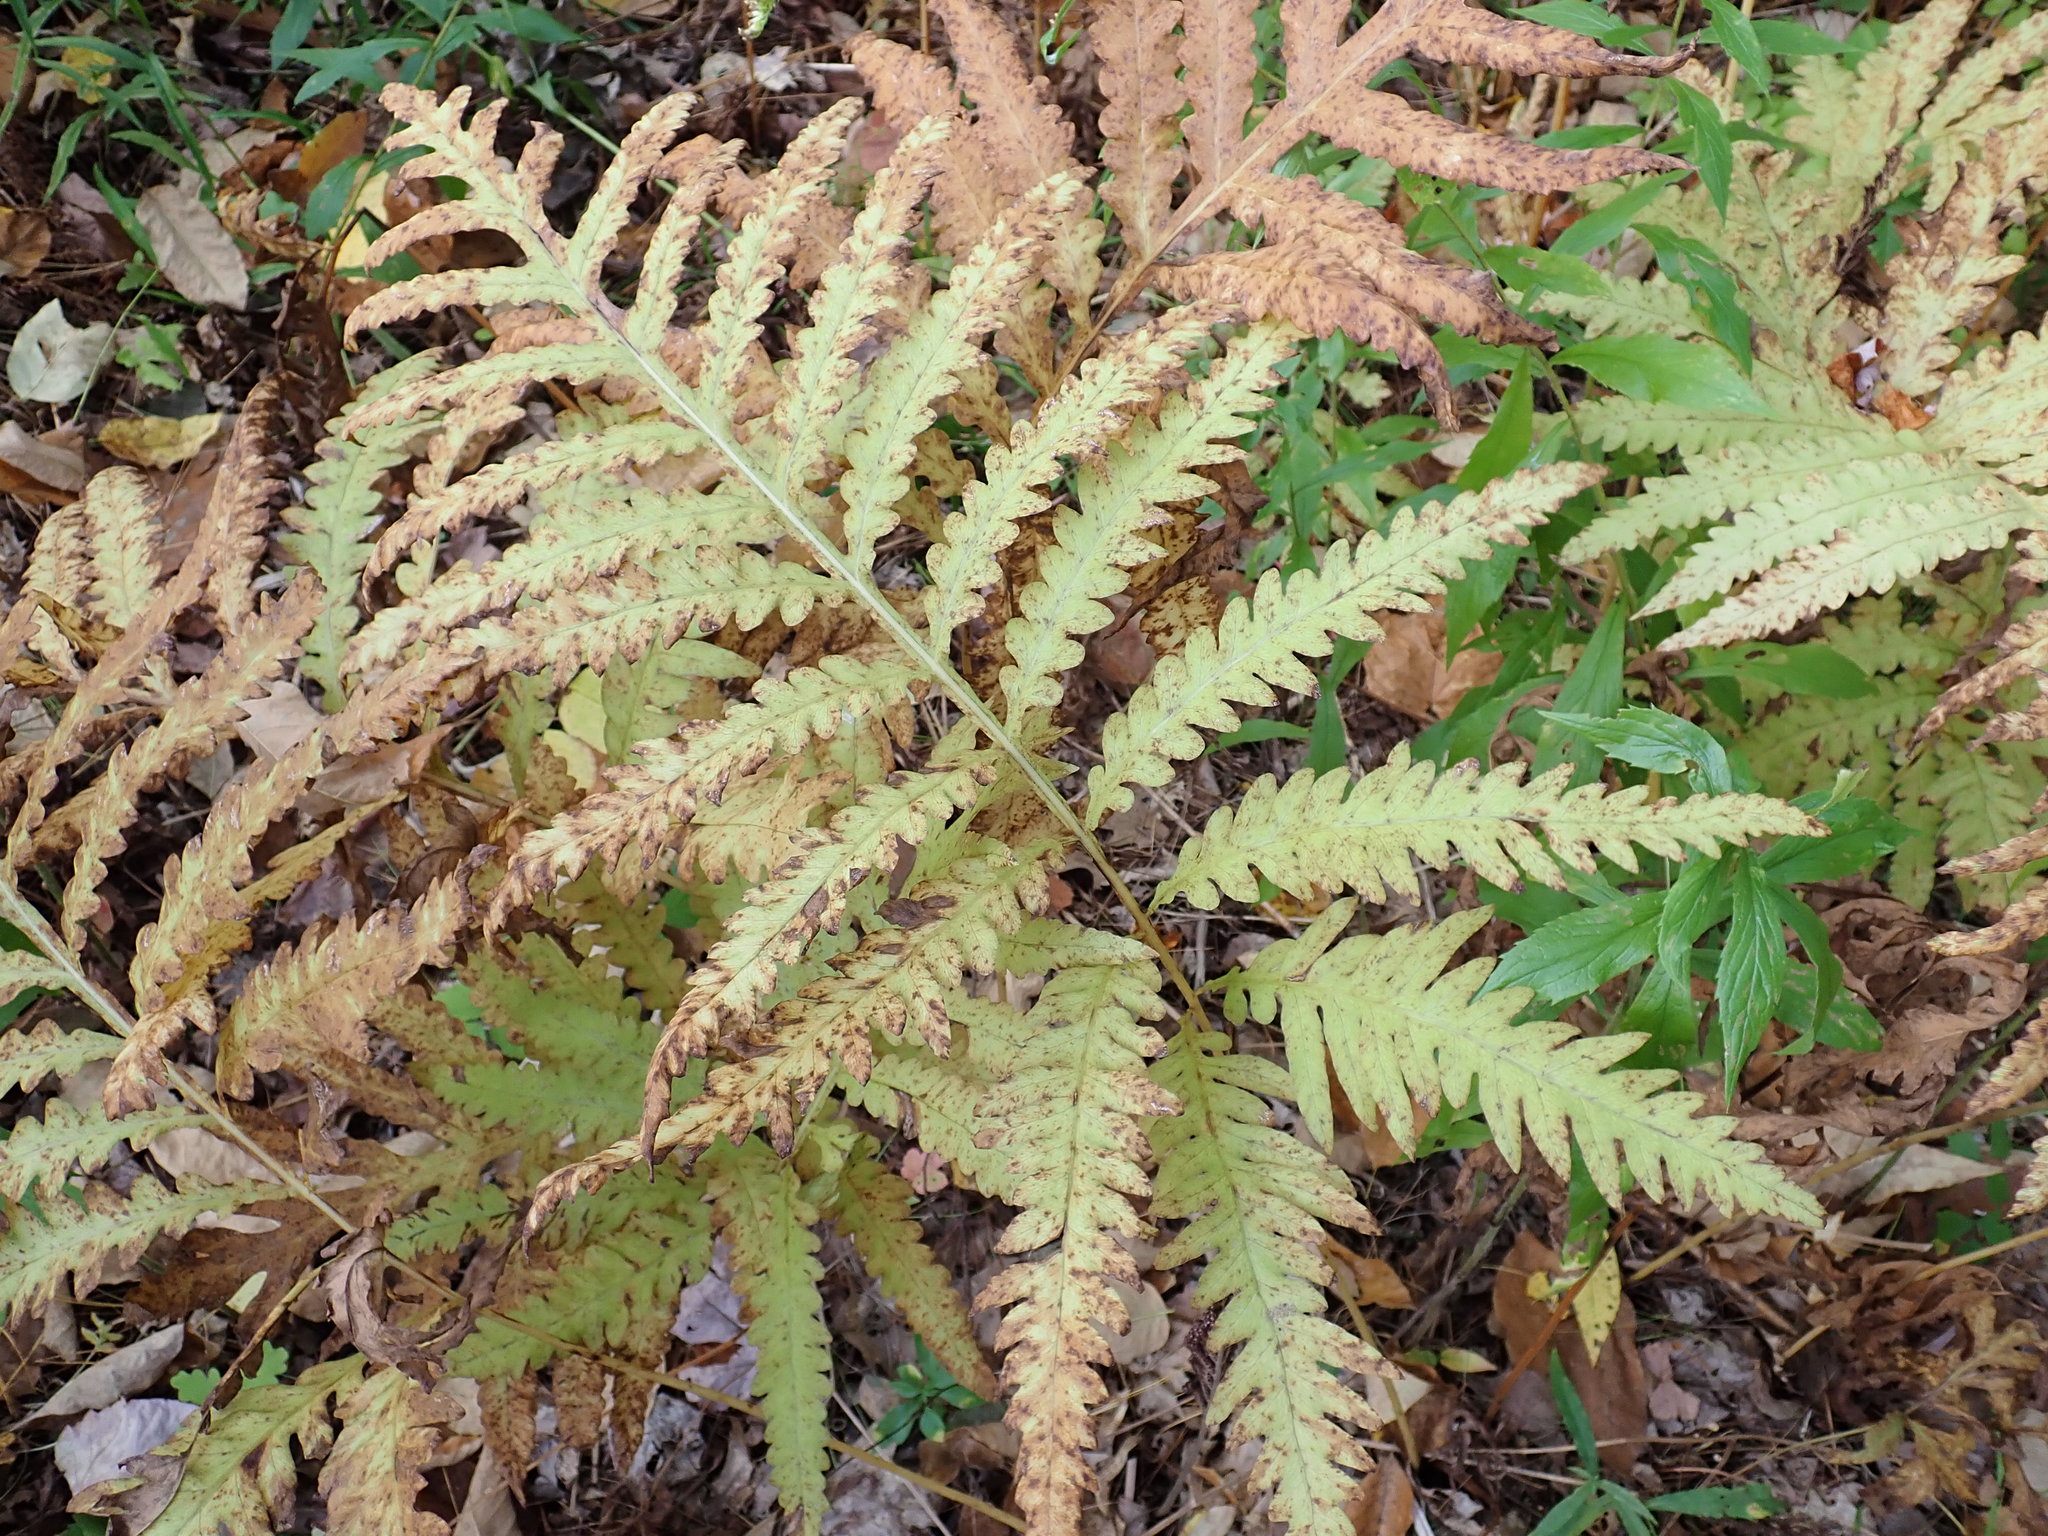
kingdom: Plantae
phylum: Tracheophyta
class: Polypodiopsida
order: Polypodiales
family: Onocleaceae
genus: Onoclea
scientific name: Onoclea sensibilis
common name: Sensitive fern
